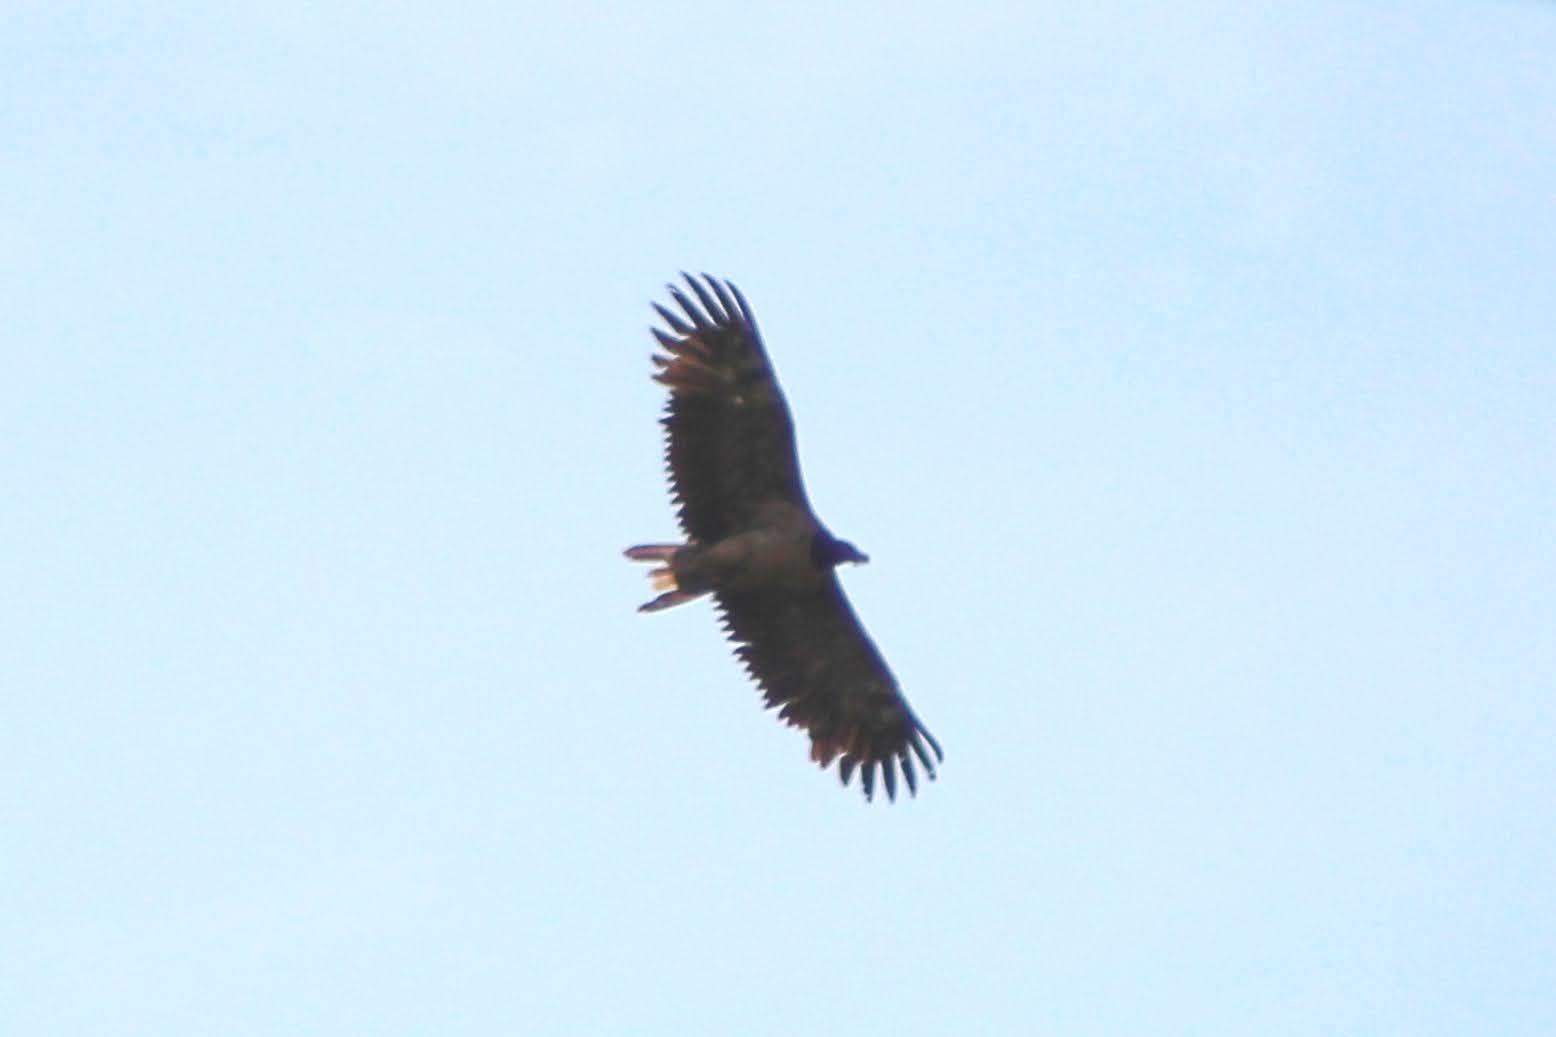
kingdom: Animalia
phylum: Chordata
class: Aves
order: Accipitriformes
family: Accipitridae
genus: Gypaetus
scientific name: Gypaetus barbatus
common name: Bearded vulture
